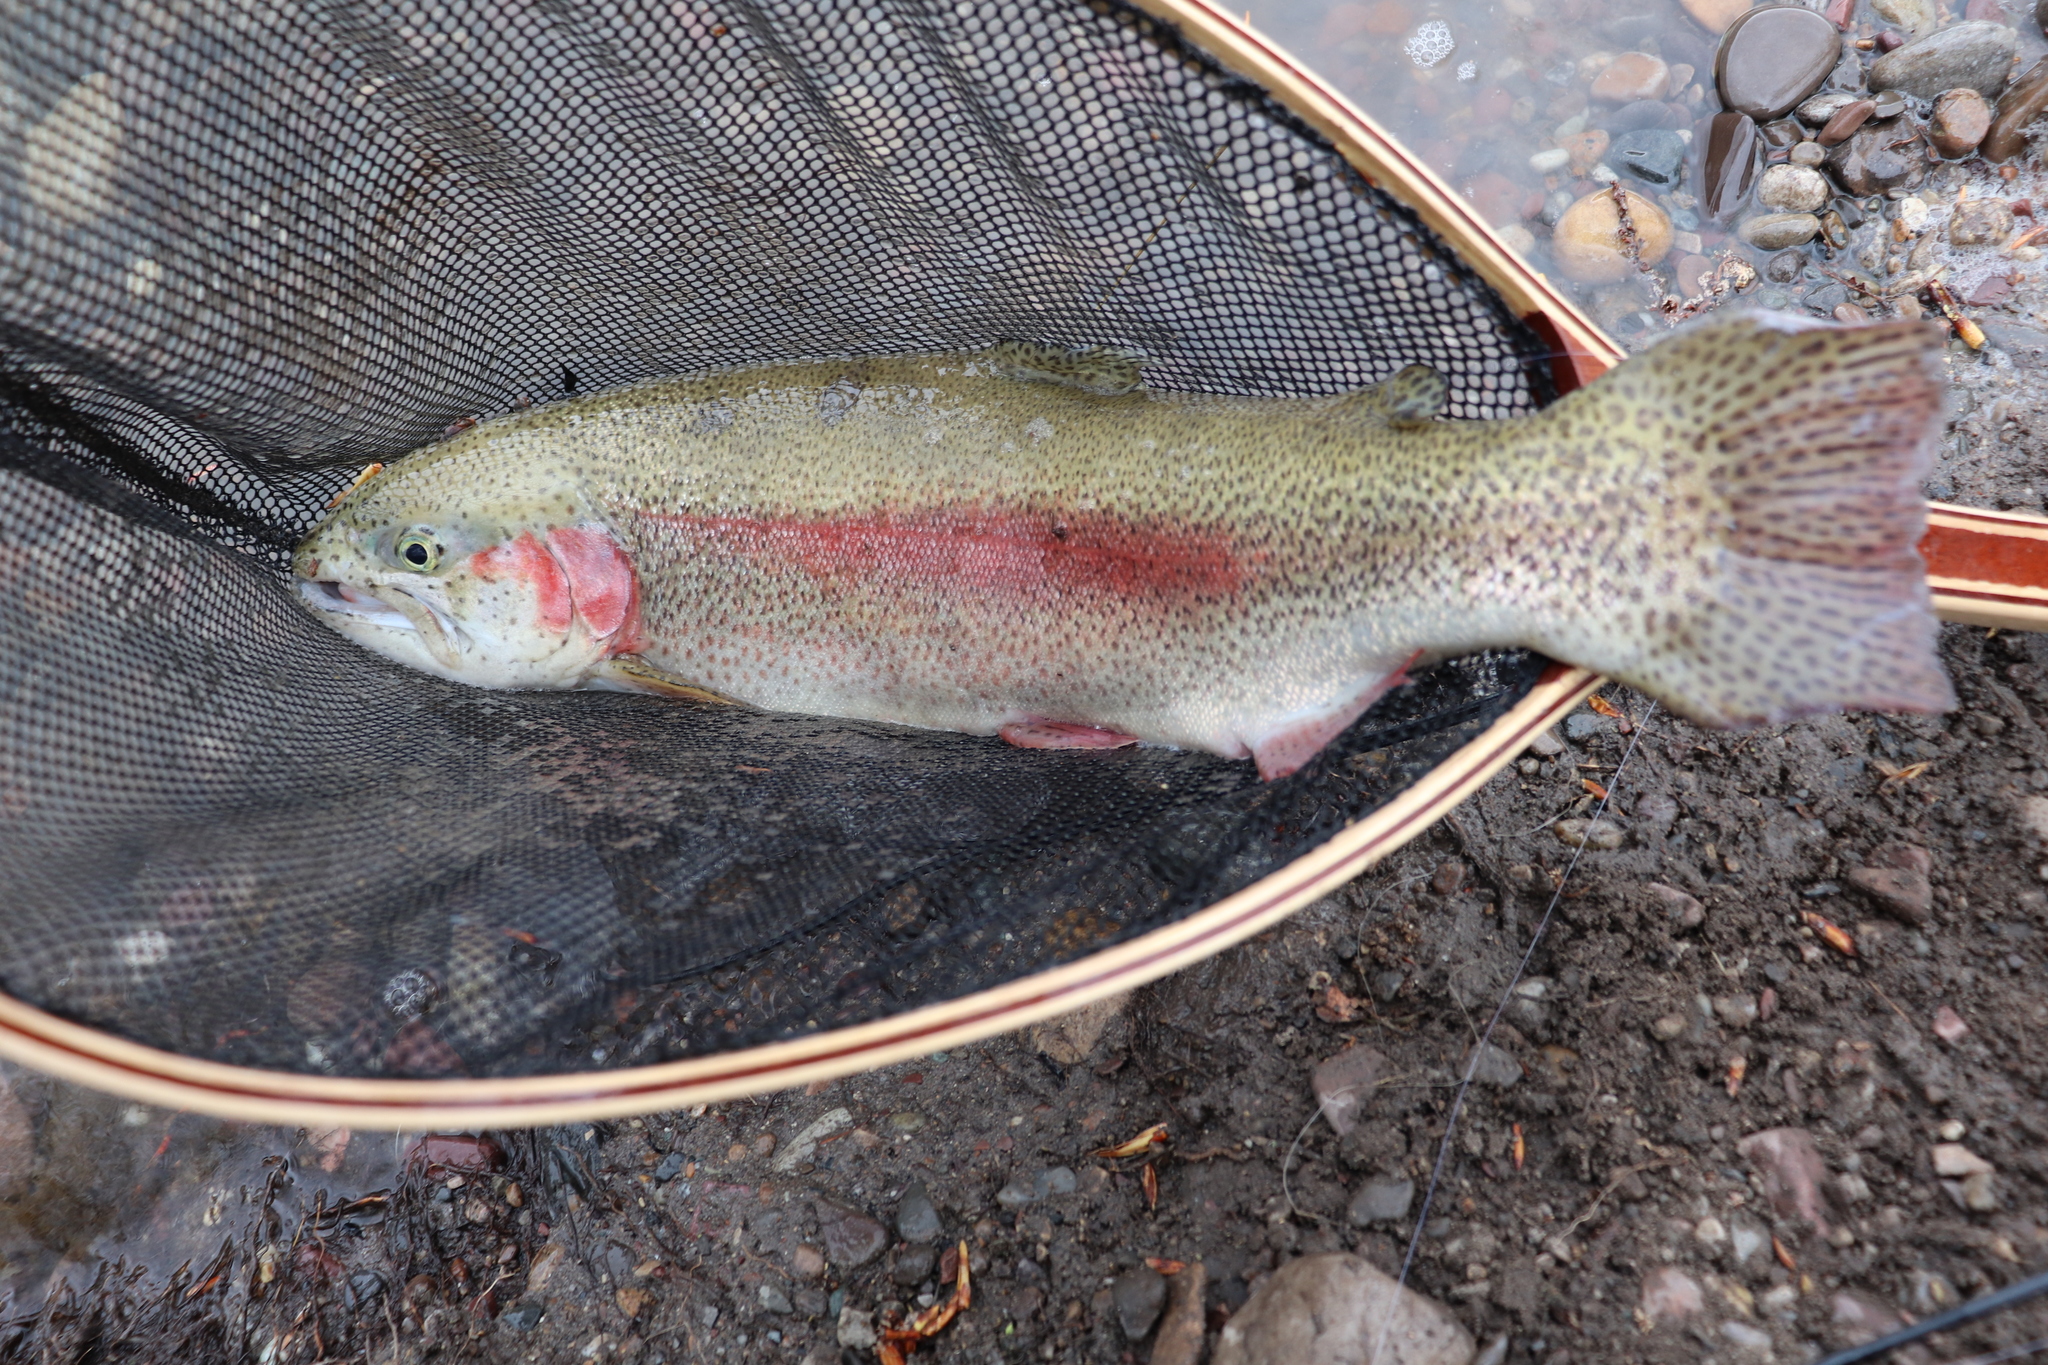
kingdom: Animalia
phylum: Chordata
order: Salmoniformes
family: Salmonidae
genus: Oncorhynchus
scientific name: Oncorhynchus mykiss
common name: Rainbow trout
